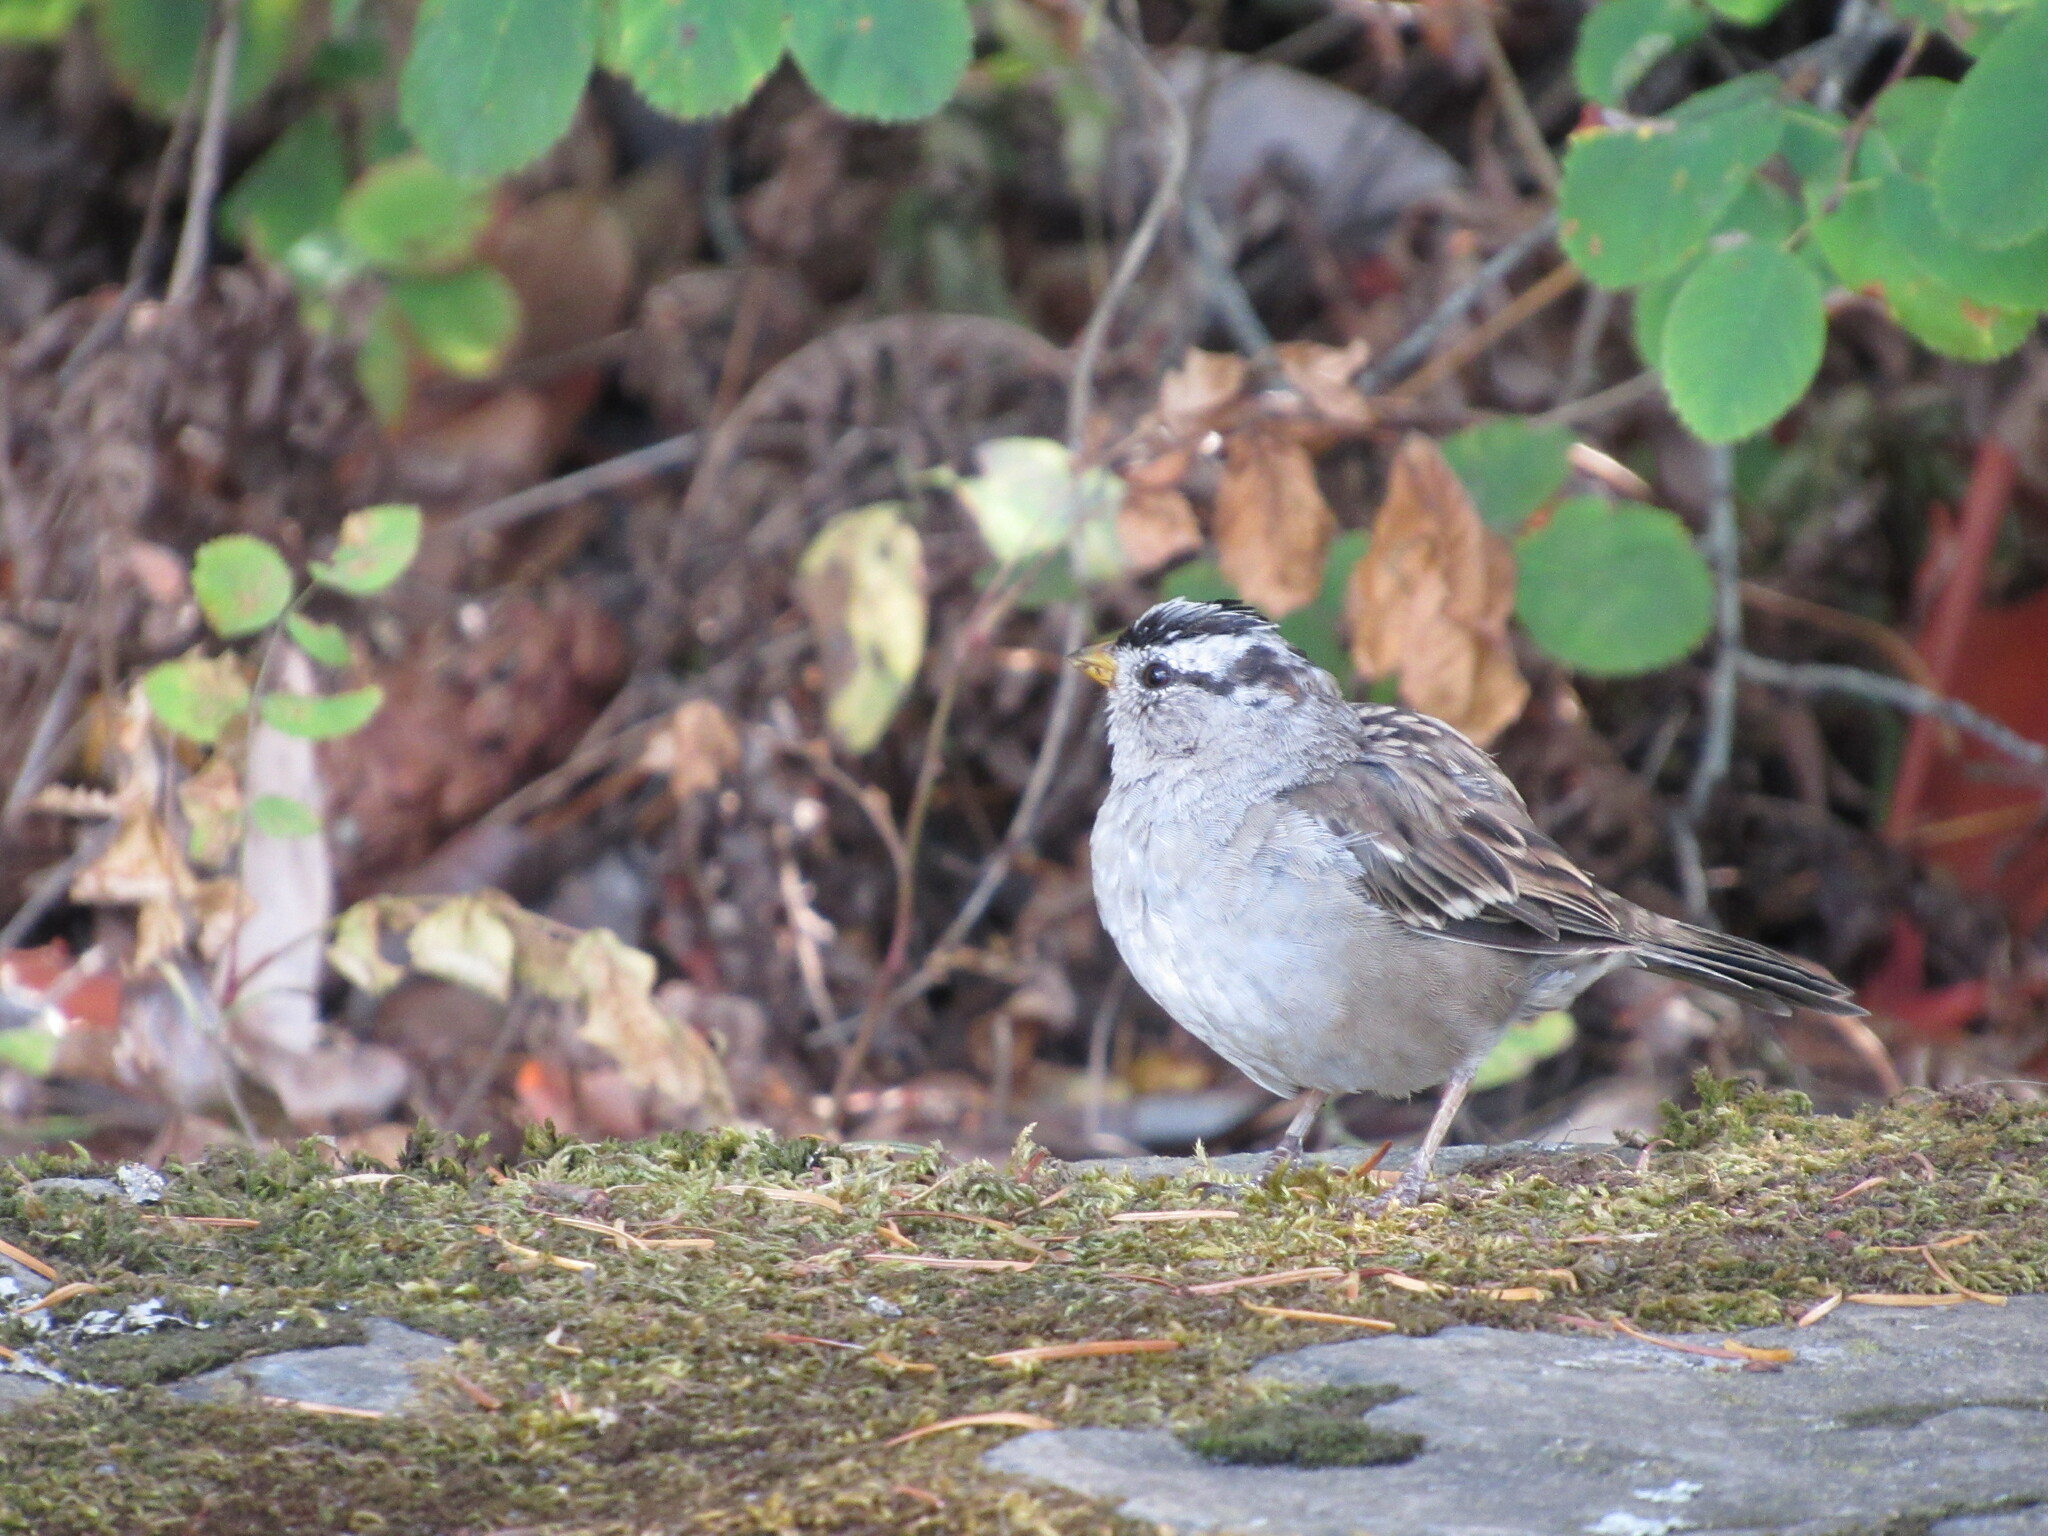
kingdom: Animalia
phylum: Chordata
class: Aves
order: Passeriformes
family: Passerellidae
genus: Zonotrichia
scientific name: Zonotrichia leucophrys
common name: White-crowned sparrow
